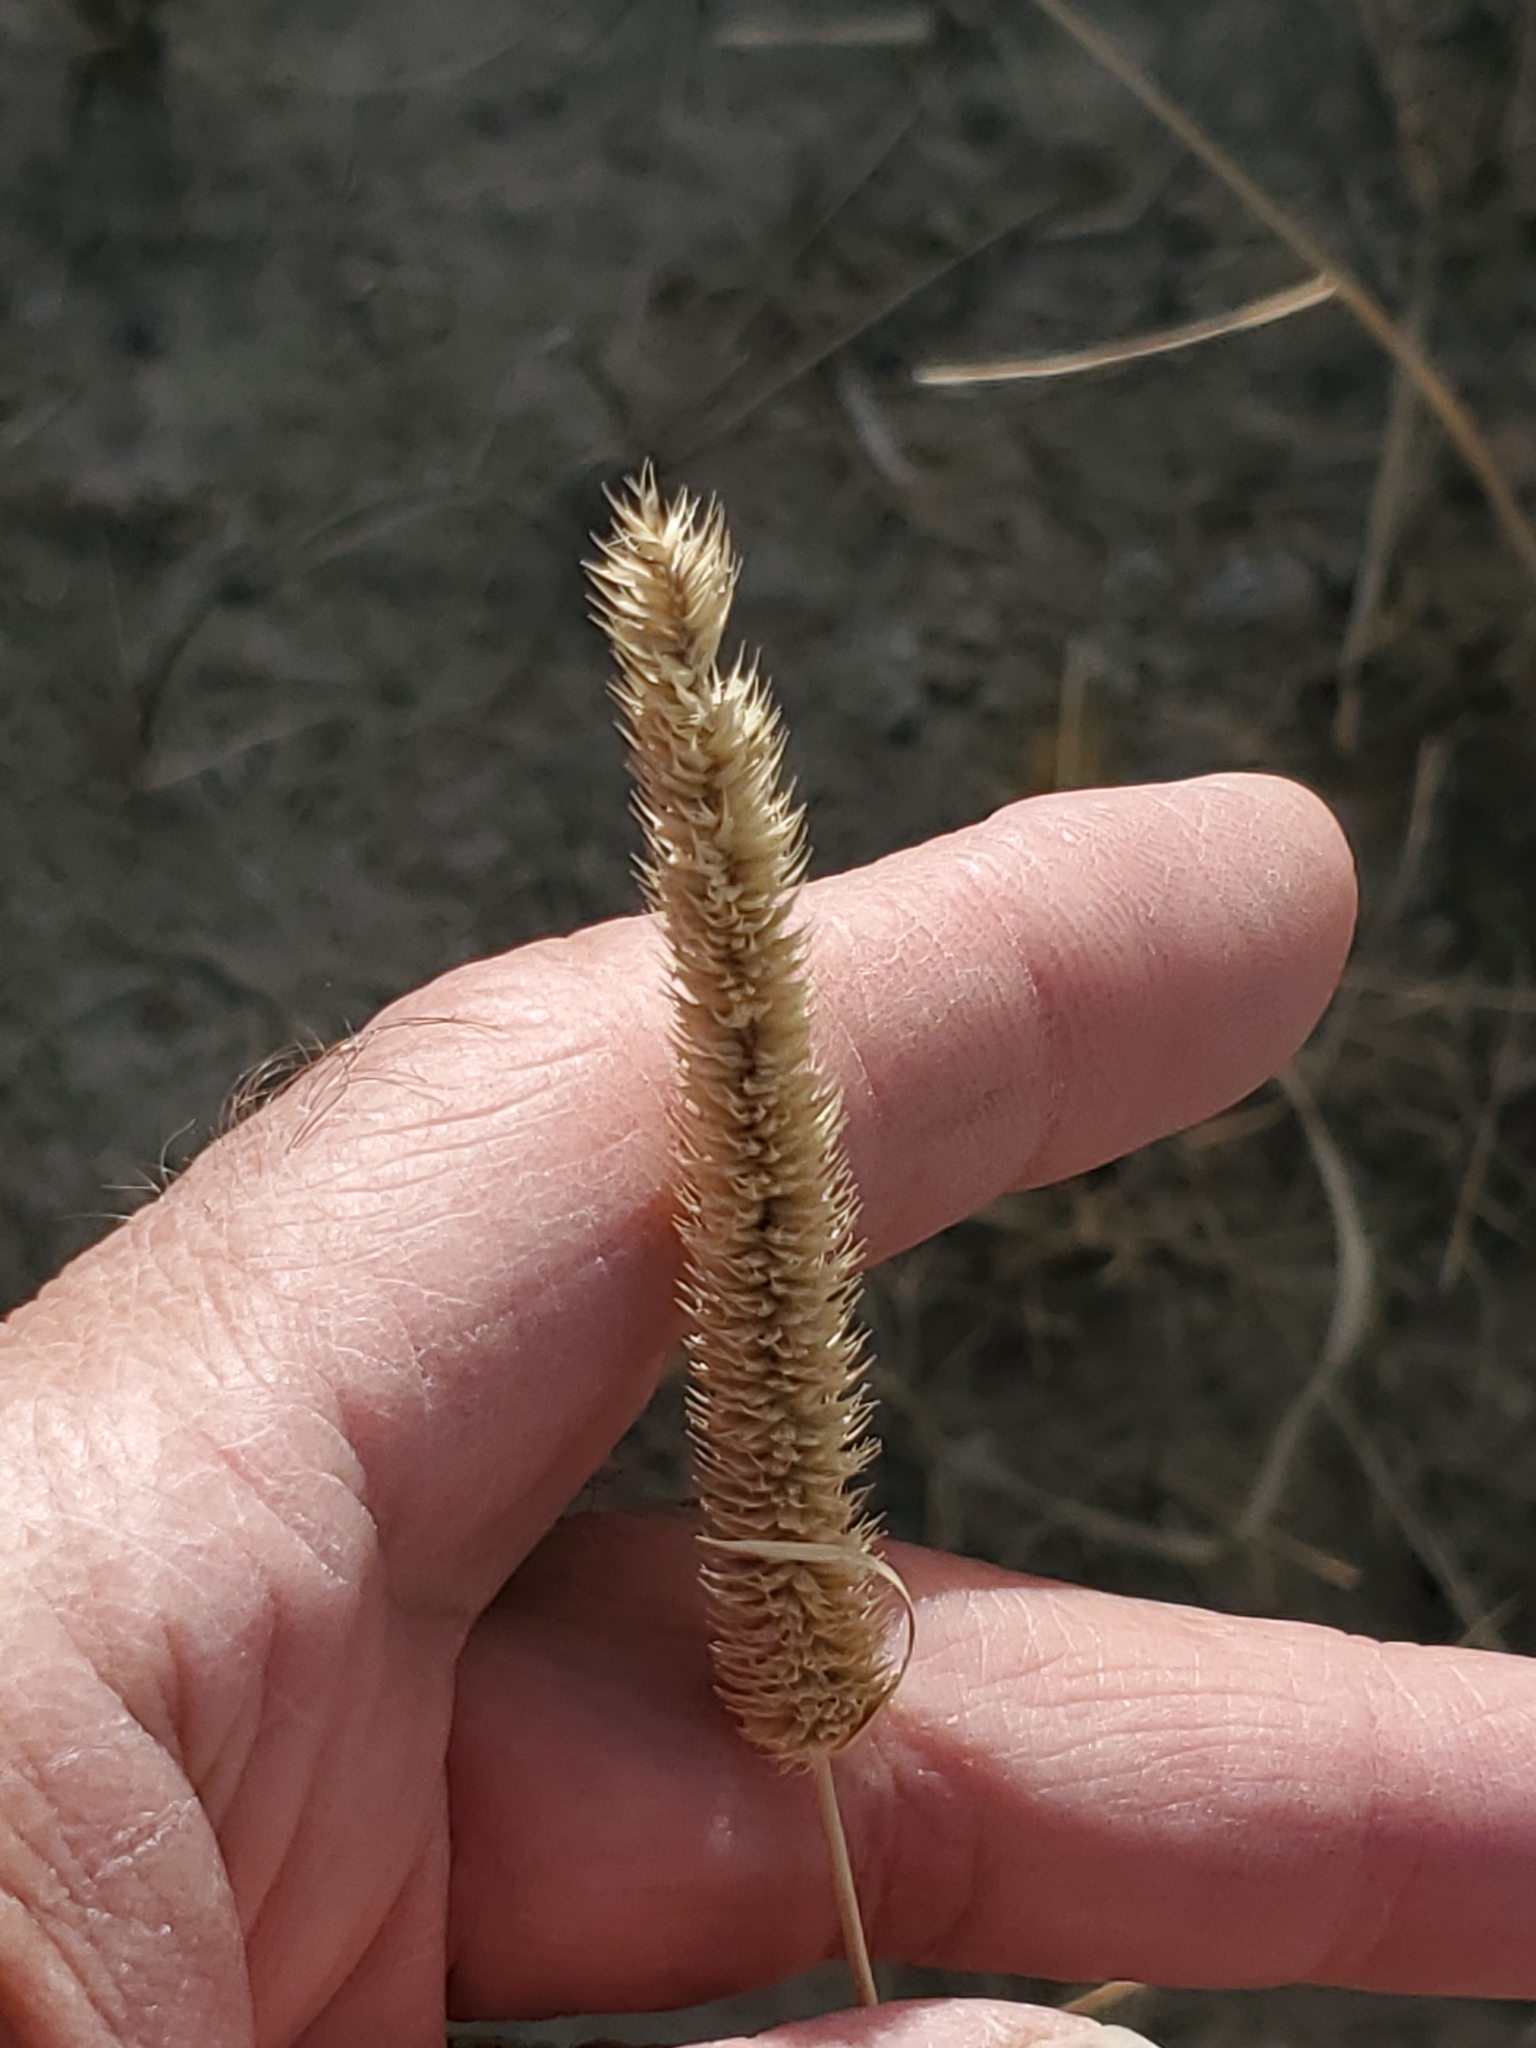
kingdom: Plantae
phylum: Tracheophyta
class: Liliopsida
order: Poales
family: Poaceae
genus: Phleum
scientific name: Phleum pratense
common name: Timothy grass
